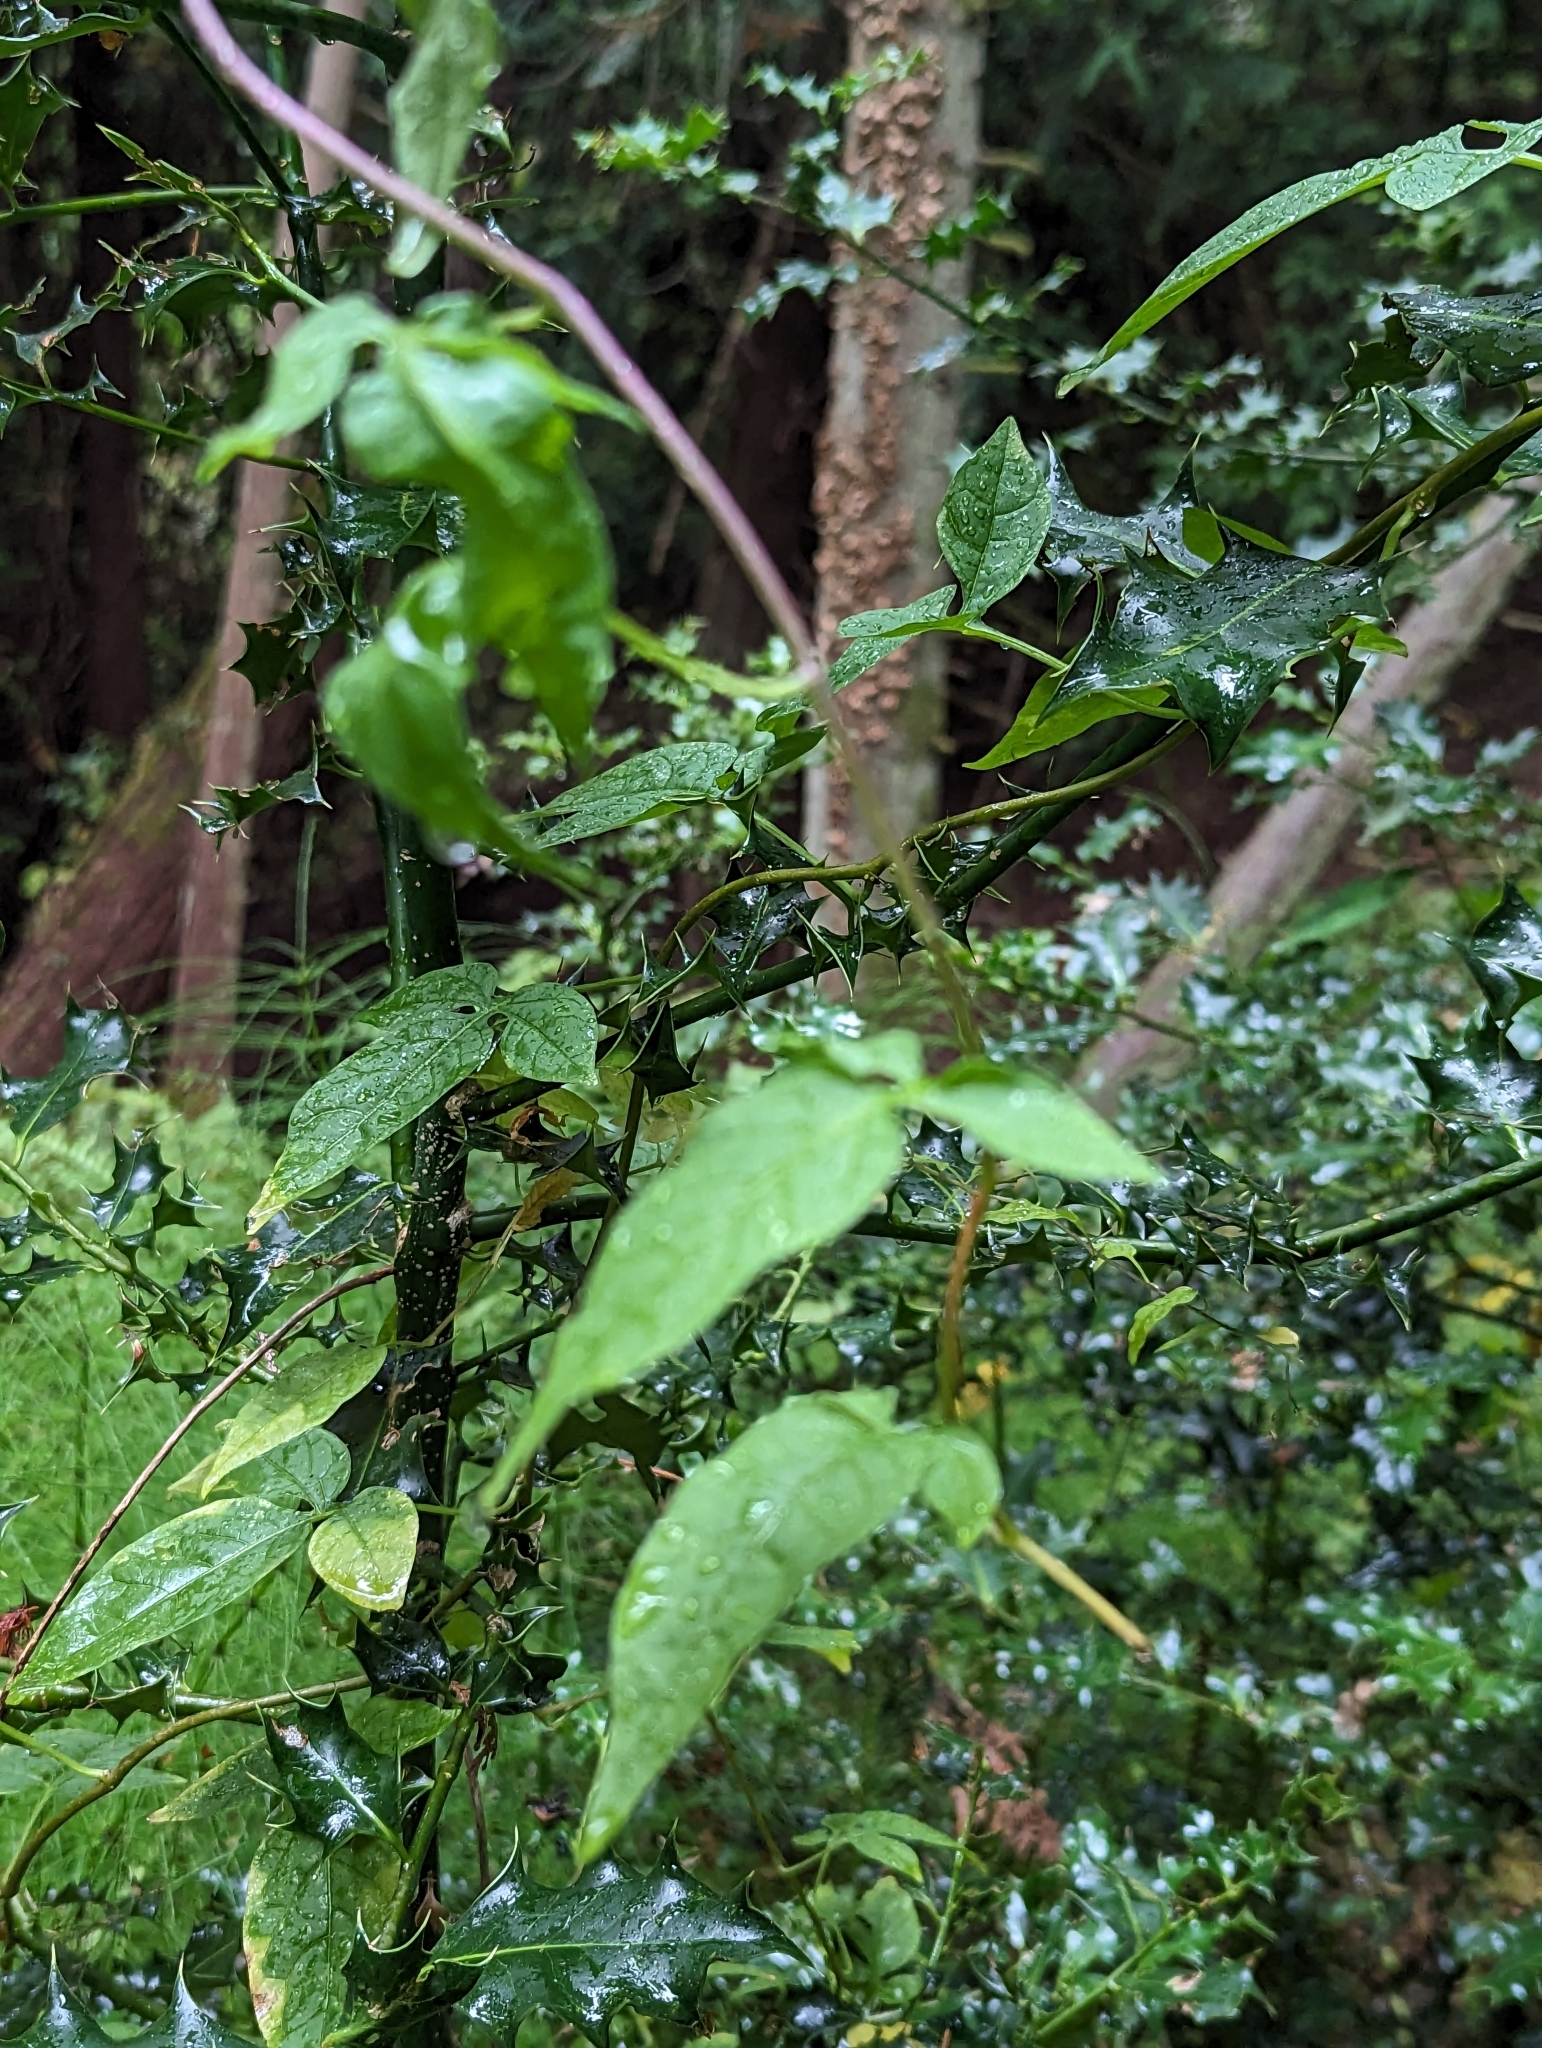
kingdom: Plantae
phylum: Tracheophyta
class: Magnoliopsida
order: Solanales
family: Solanaceae
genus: Solanum
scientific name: Solanum dulcamara
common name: Climbing nightshade
